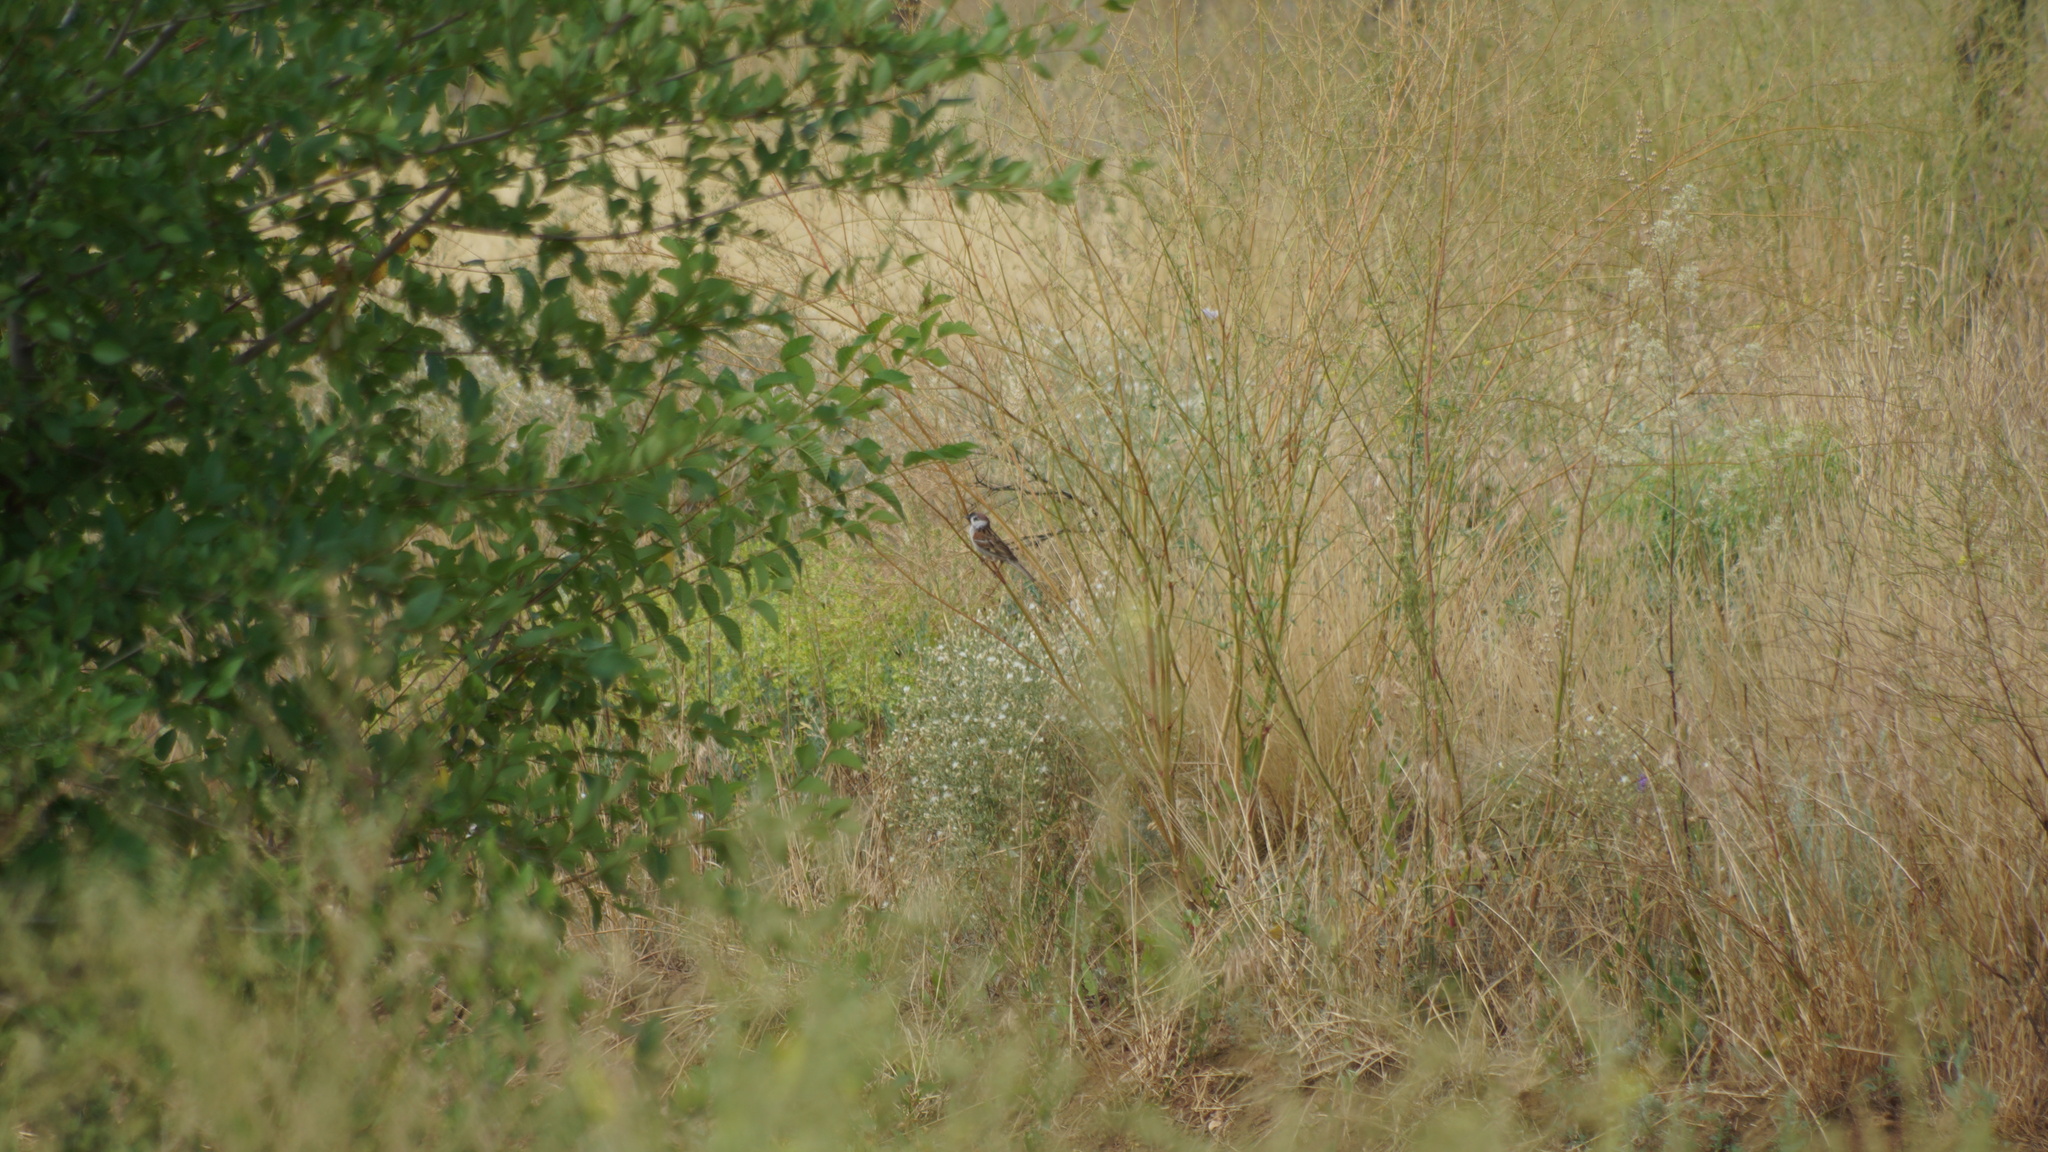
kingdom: Animalia
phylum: Chordata
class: Aves
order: Passeriformes
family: Passeridae
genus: Passer
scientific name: Passer montanus
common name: Eurasian tree sparrow
